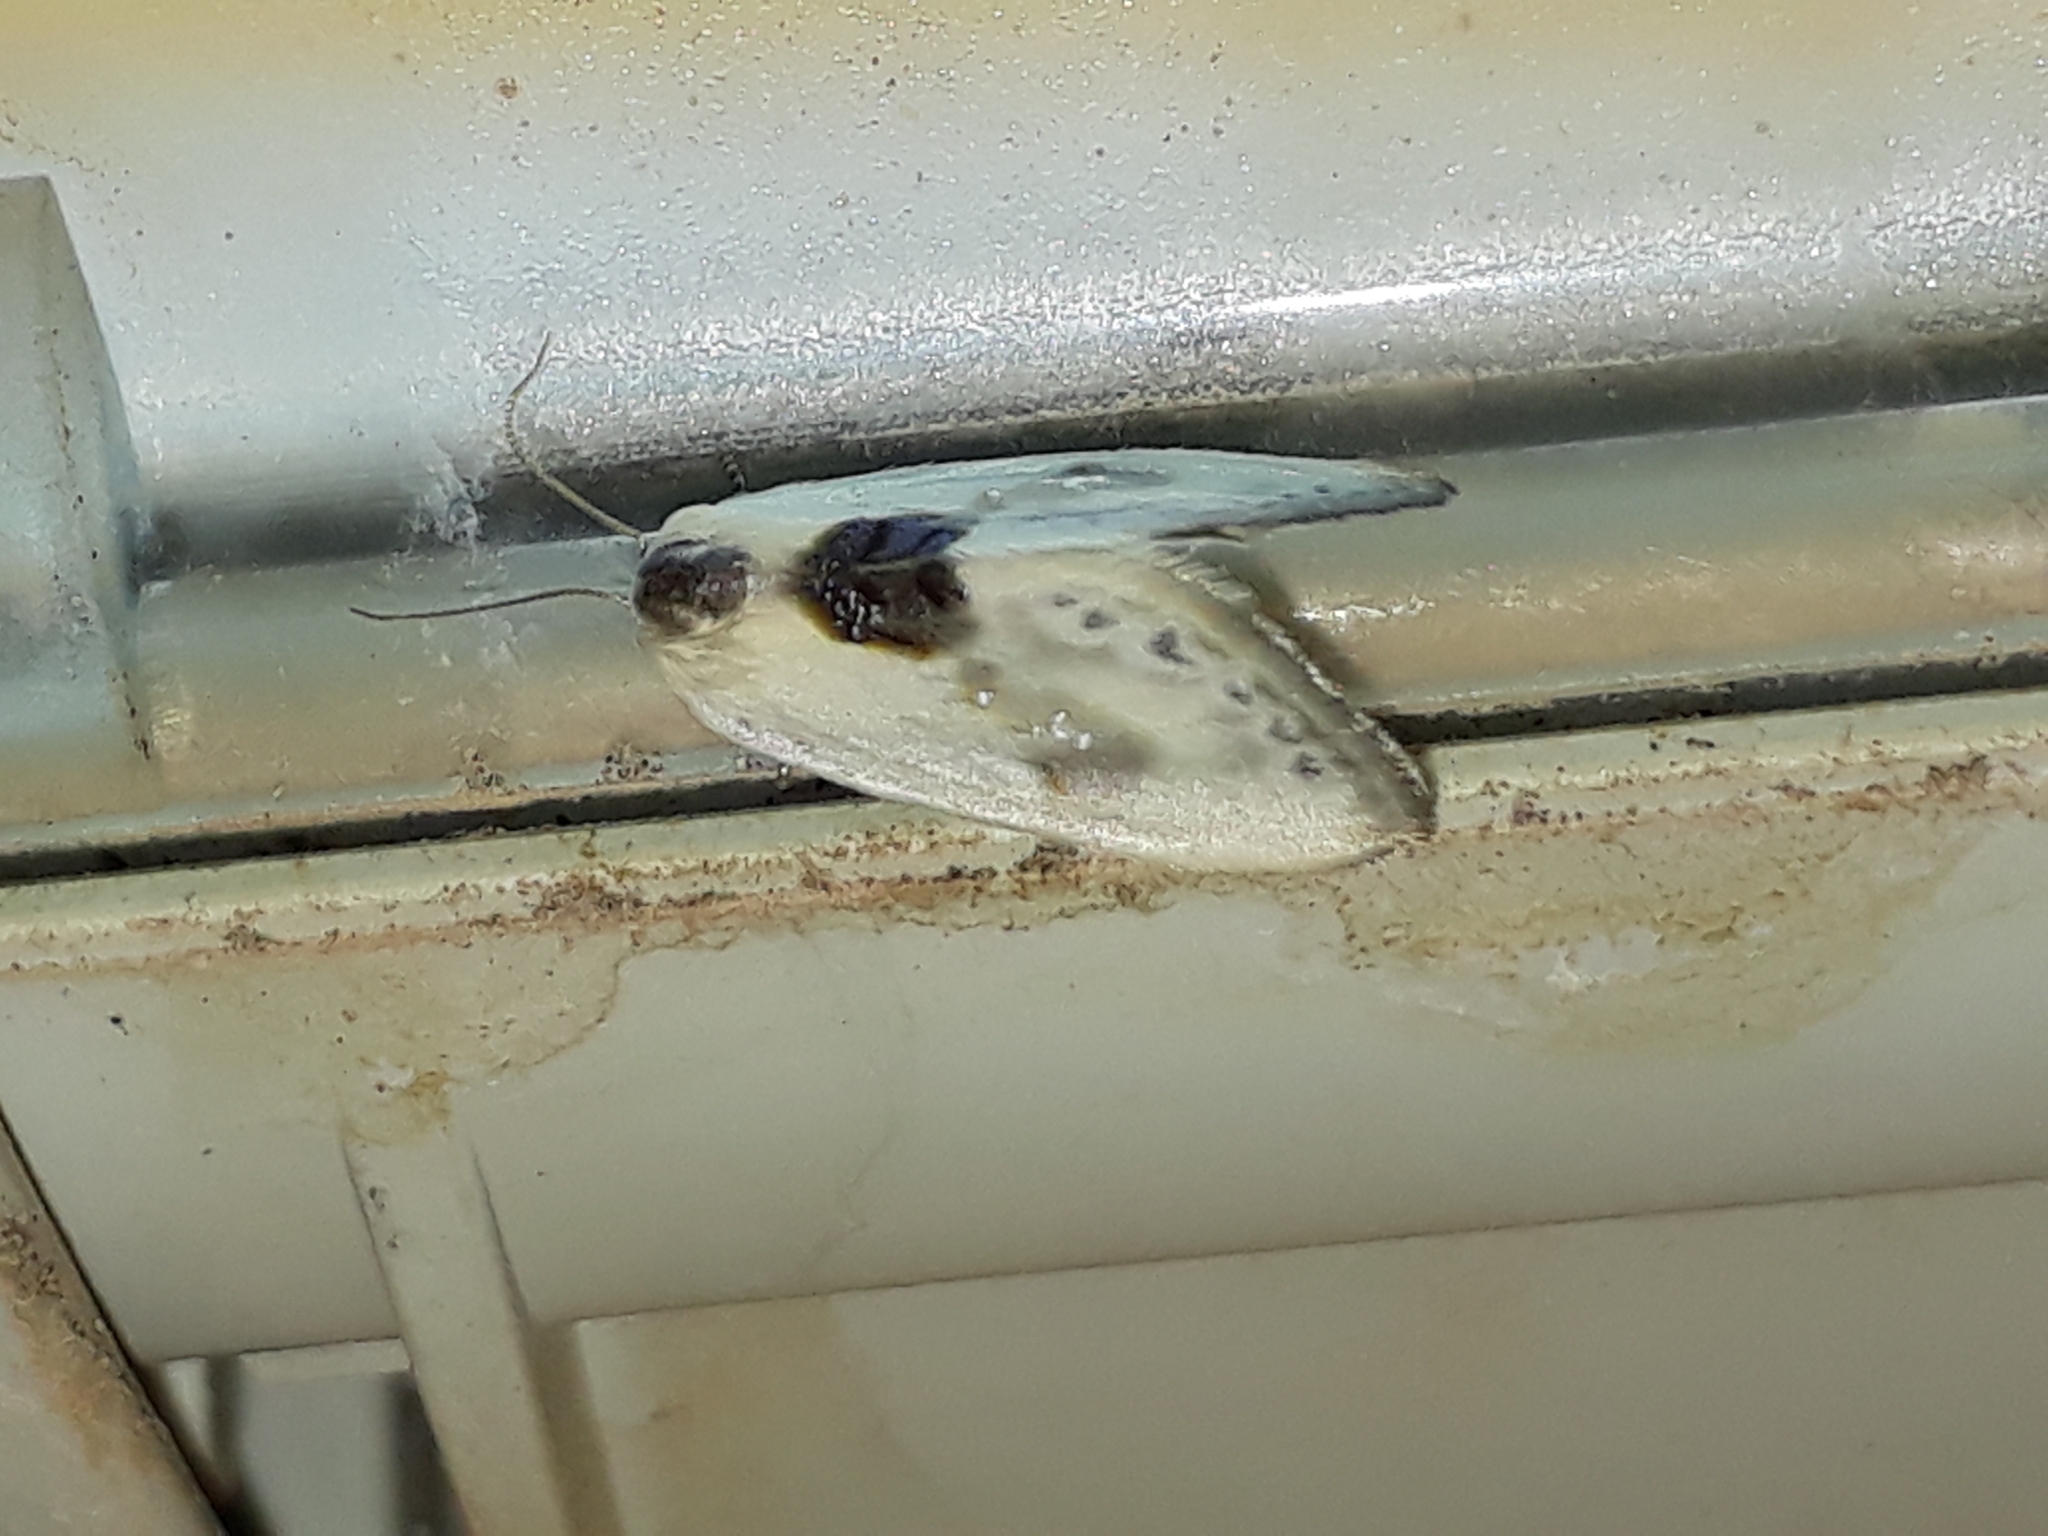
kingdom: Animalia
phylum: Arthropoda
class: Insecta
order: Lepidoptera
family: Drepanidae
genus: Cilix
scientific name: Cilix glaucata
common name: Chinese character
